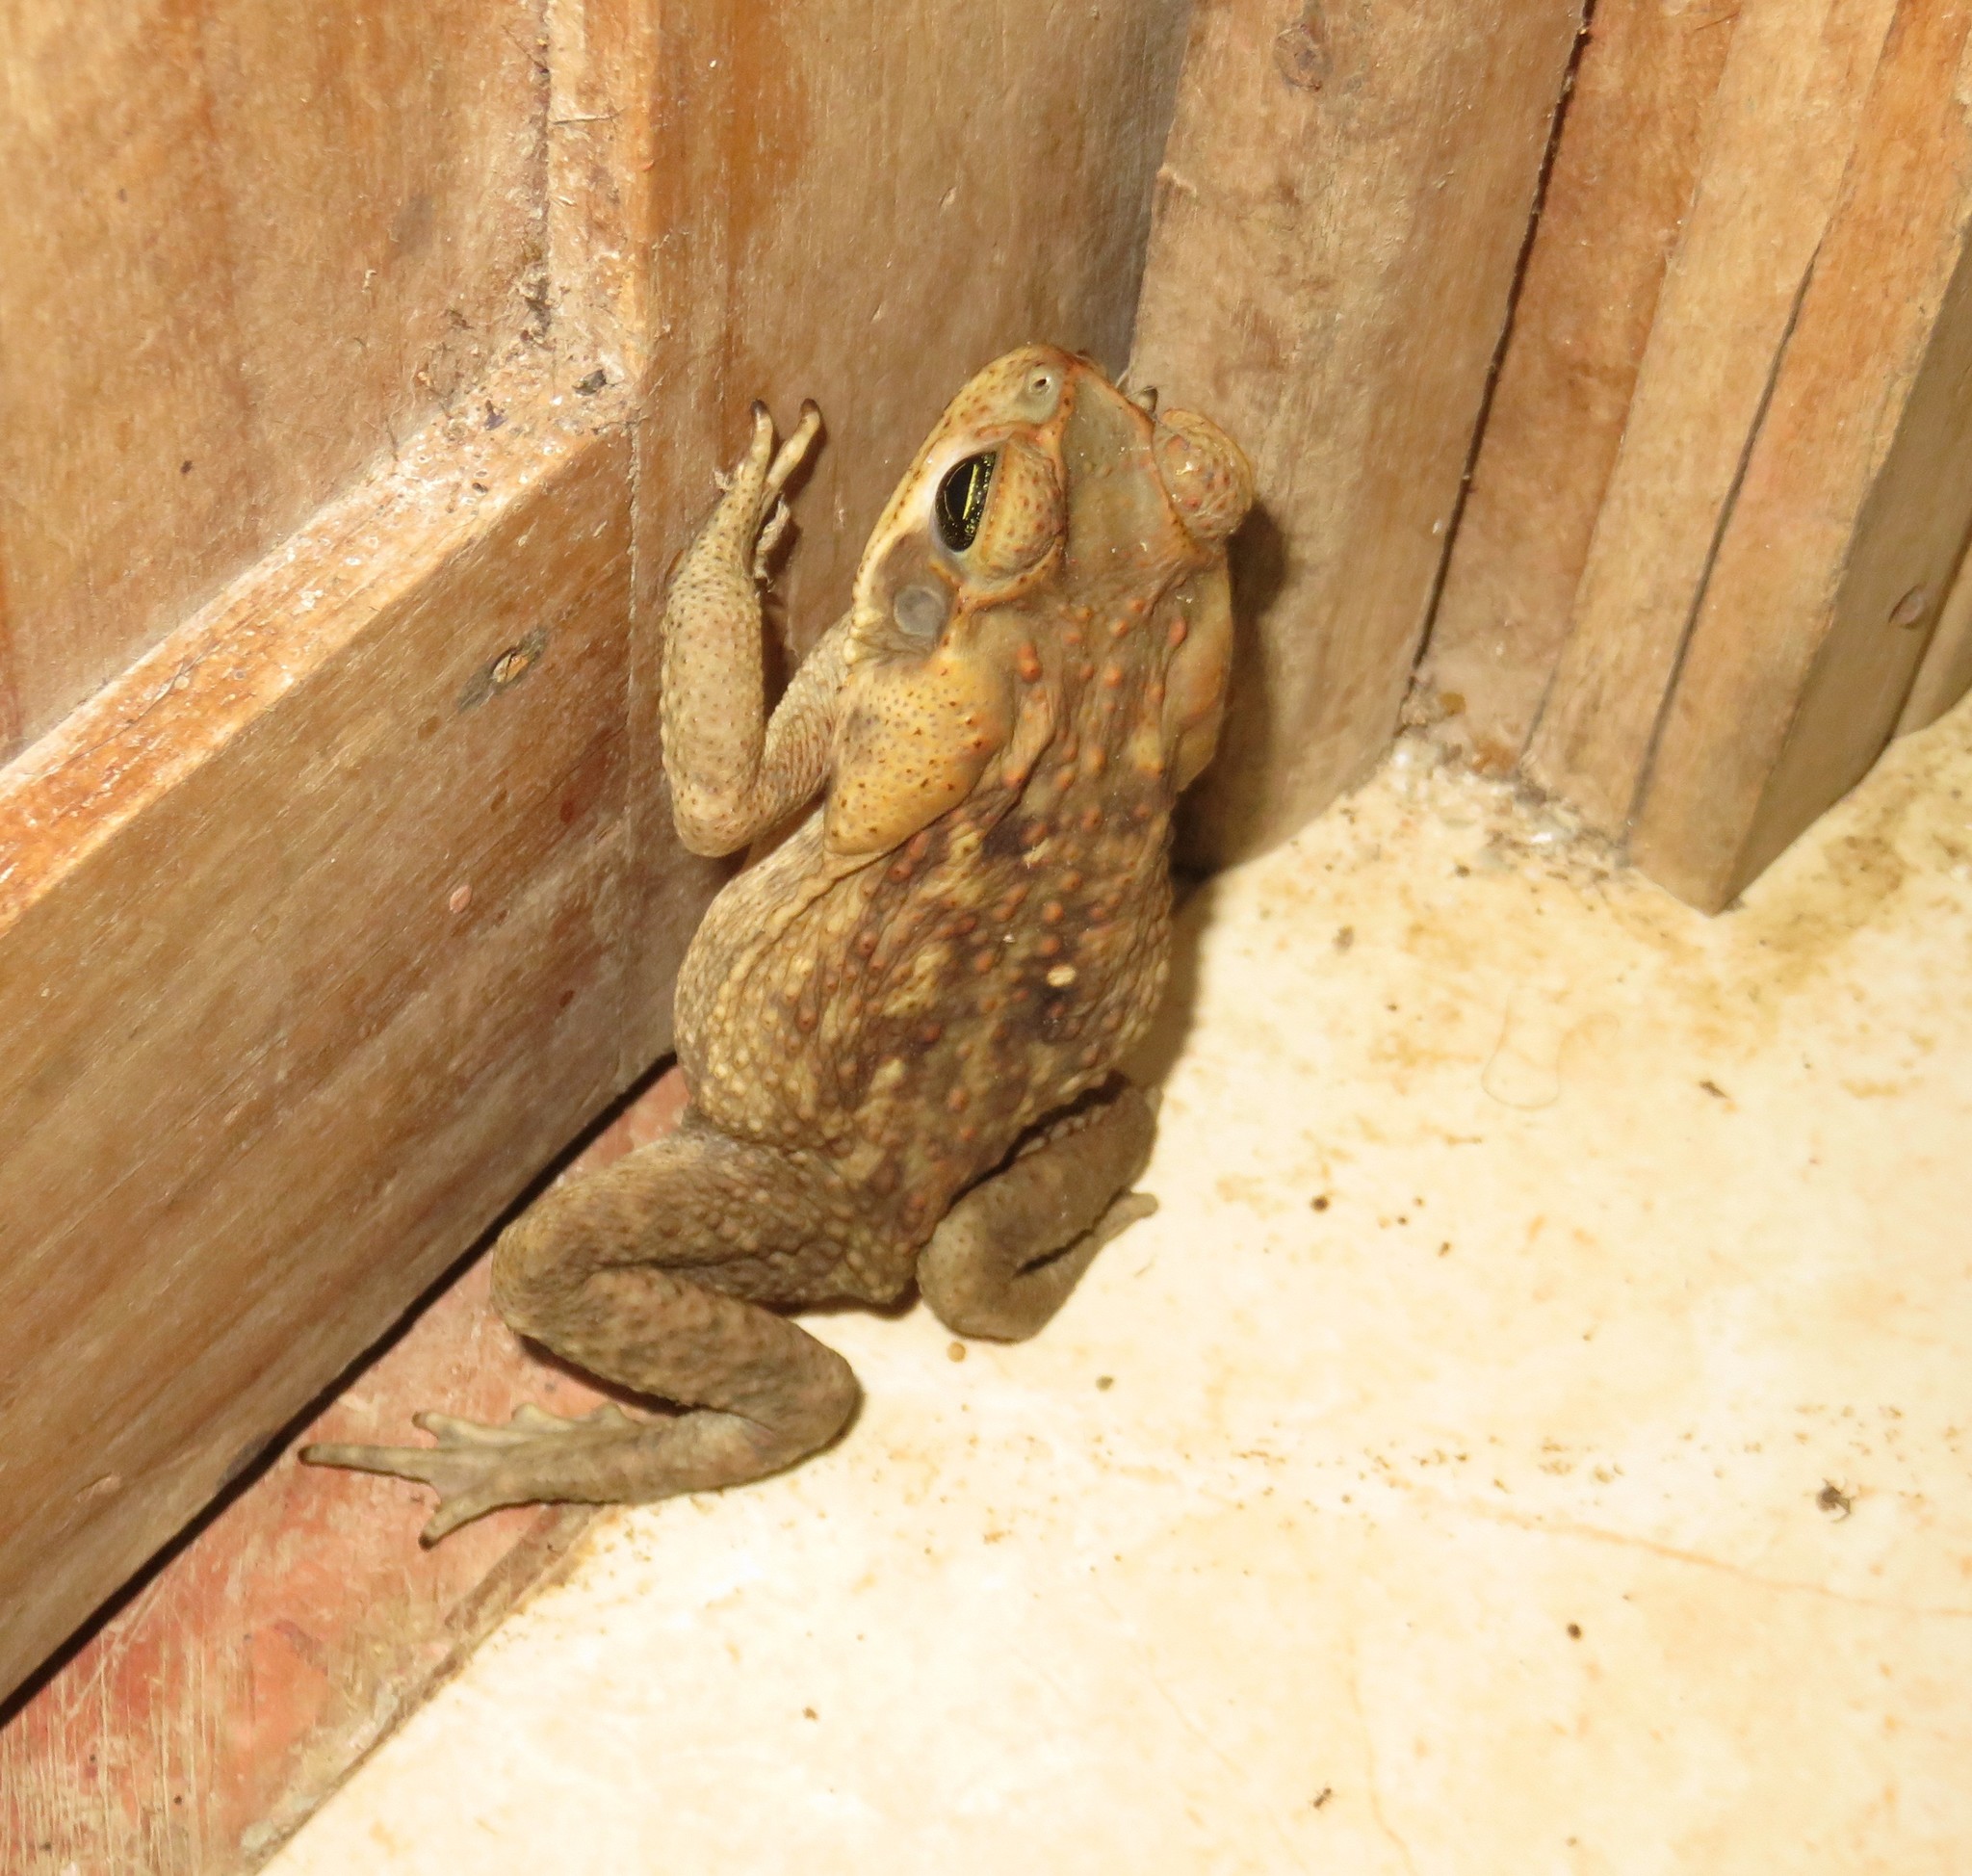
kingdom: Animalia
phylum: Chordata
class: Amphibia
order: Anura
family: Bufonidae
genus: Rhinella
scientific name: Rhinella horribilis
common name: Mesoamerican cane toad
